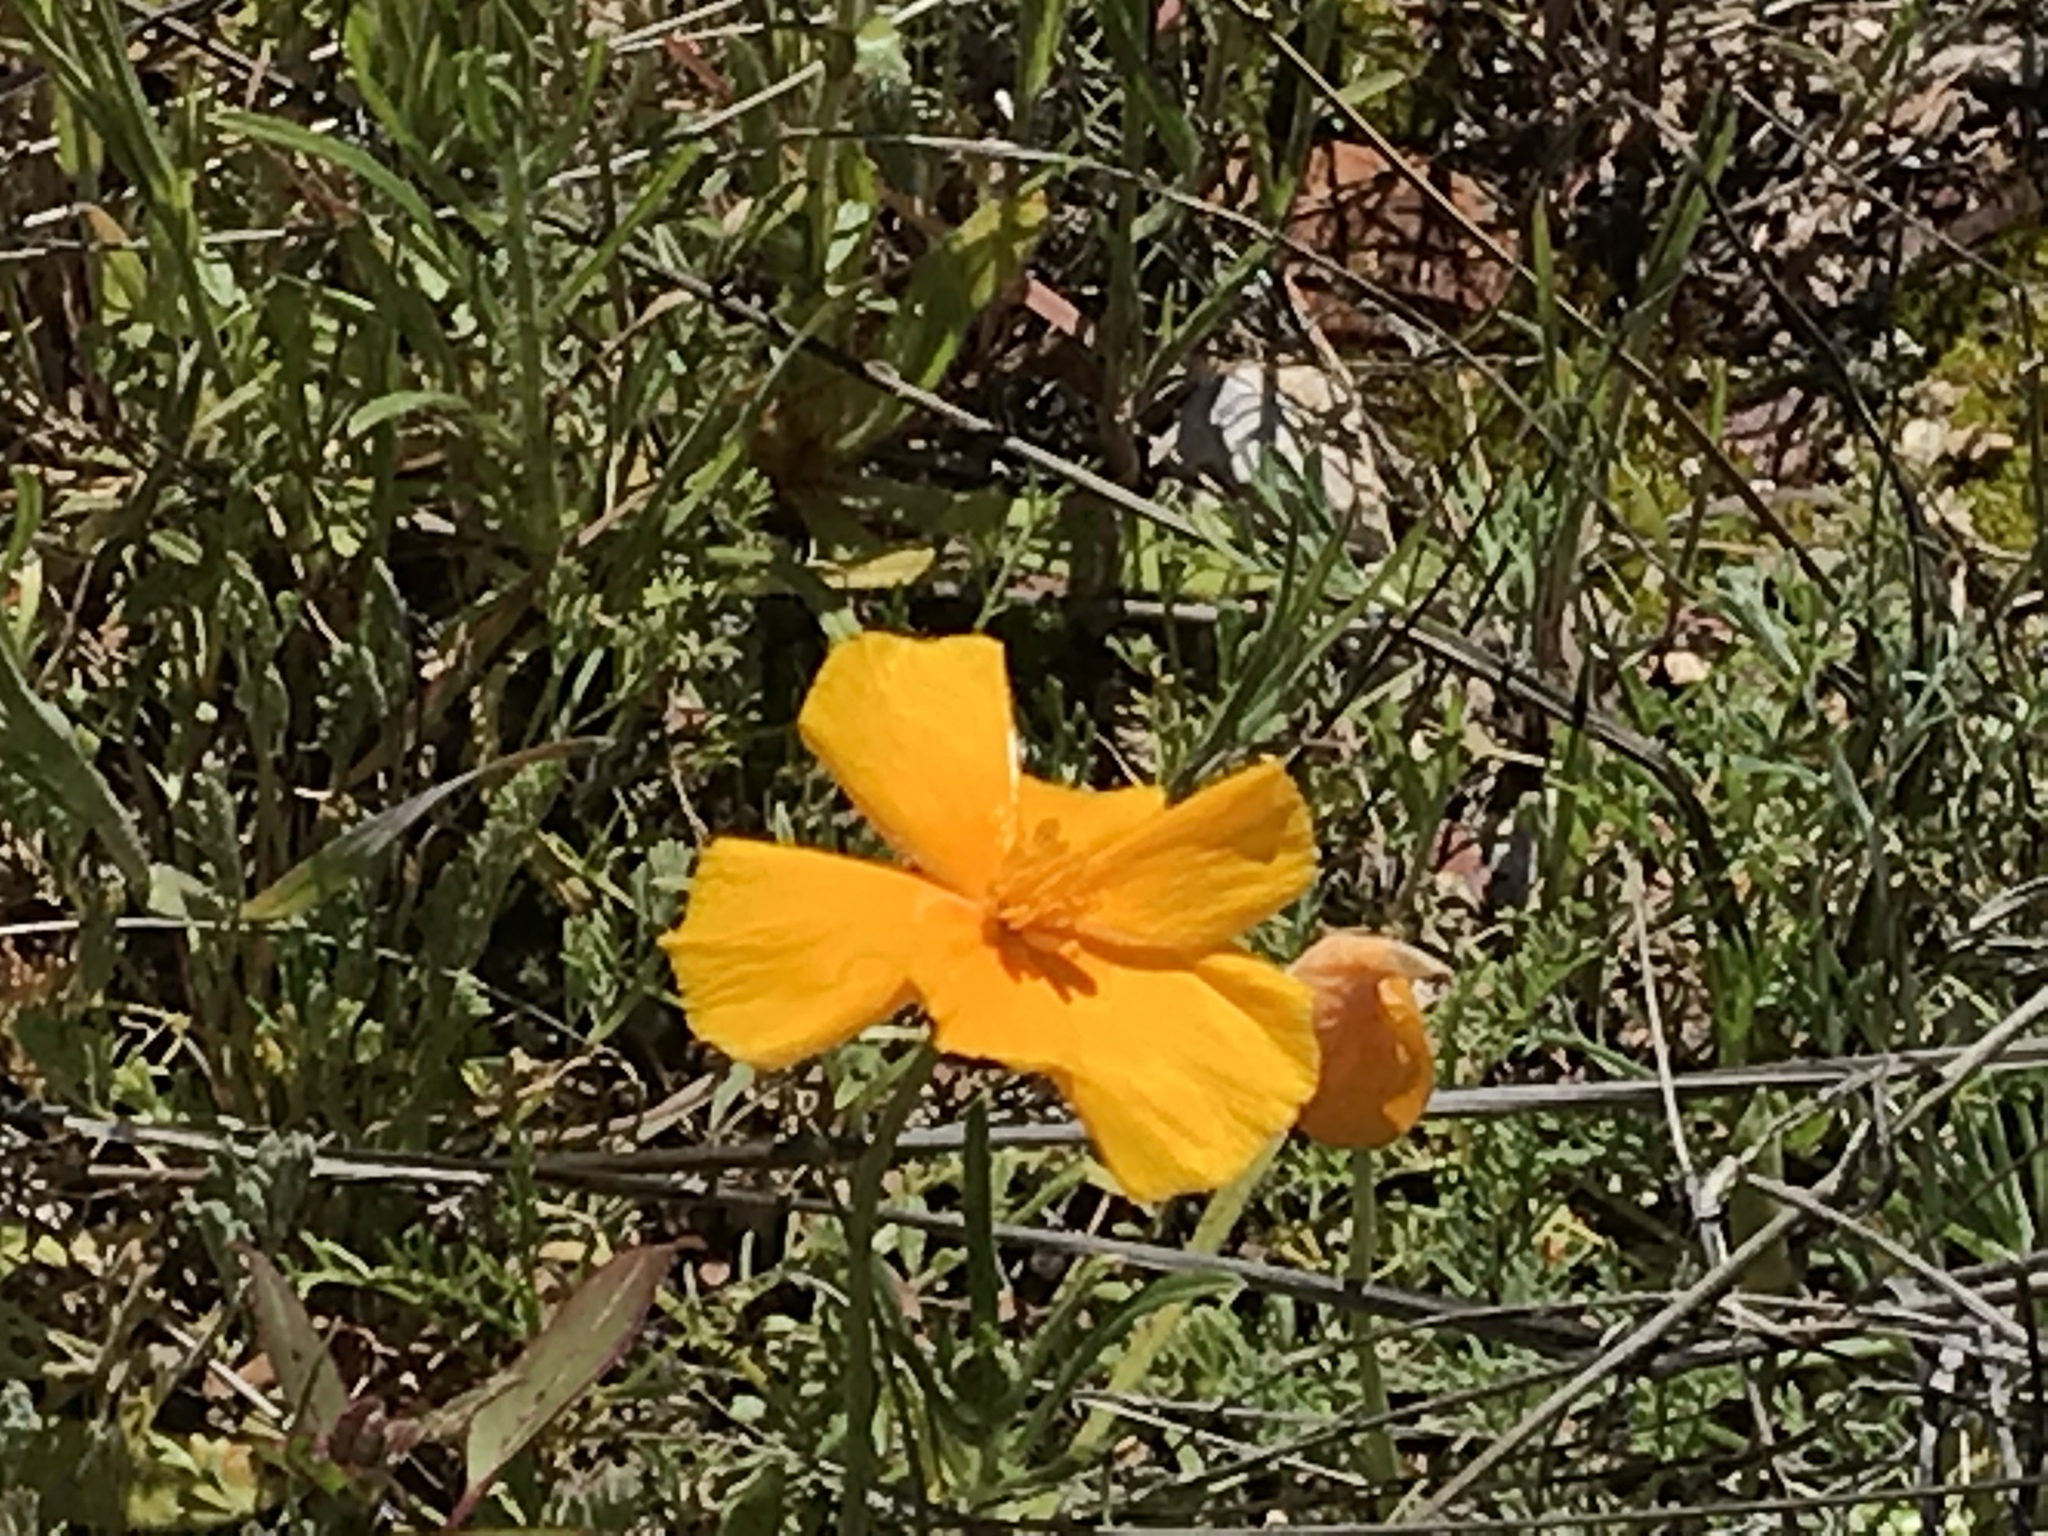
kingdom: Plantae
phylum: Tracheophyta
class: Magnoliopsida
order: Ranunculales
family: Papaveraceae
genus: Eschscholzia
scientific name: Eschscholzia californica
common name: California poppy
